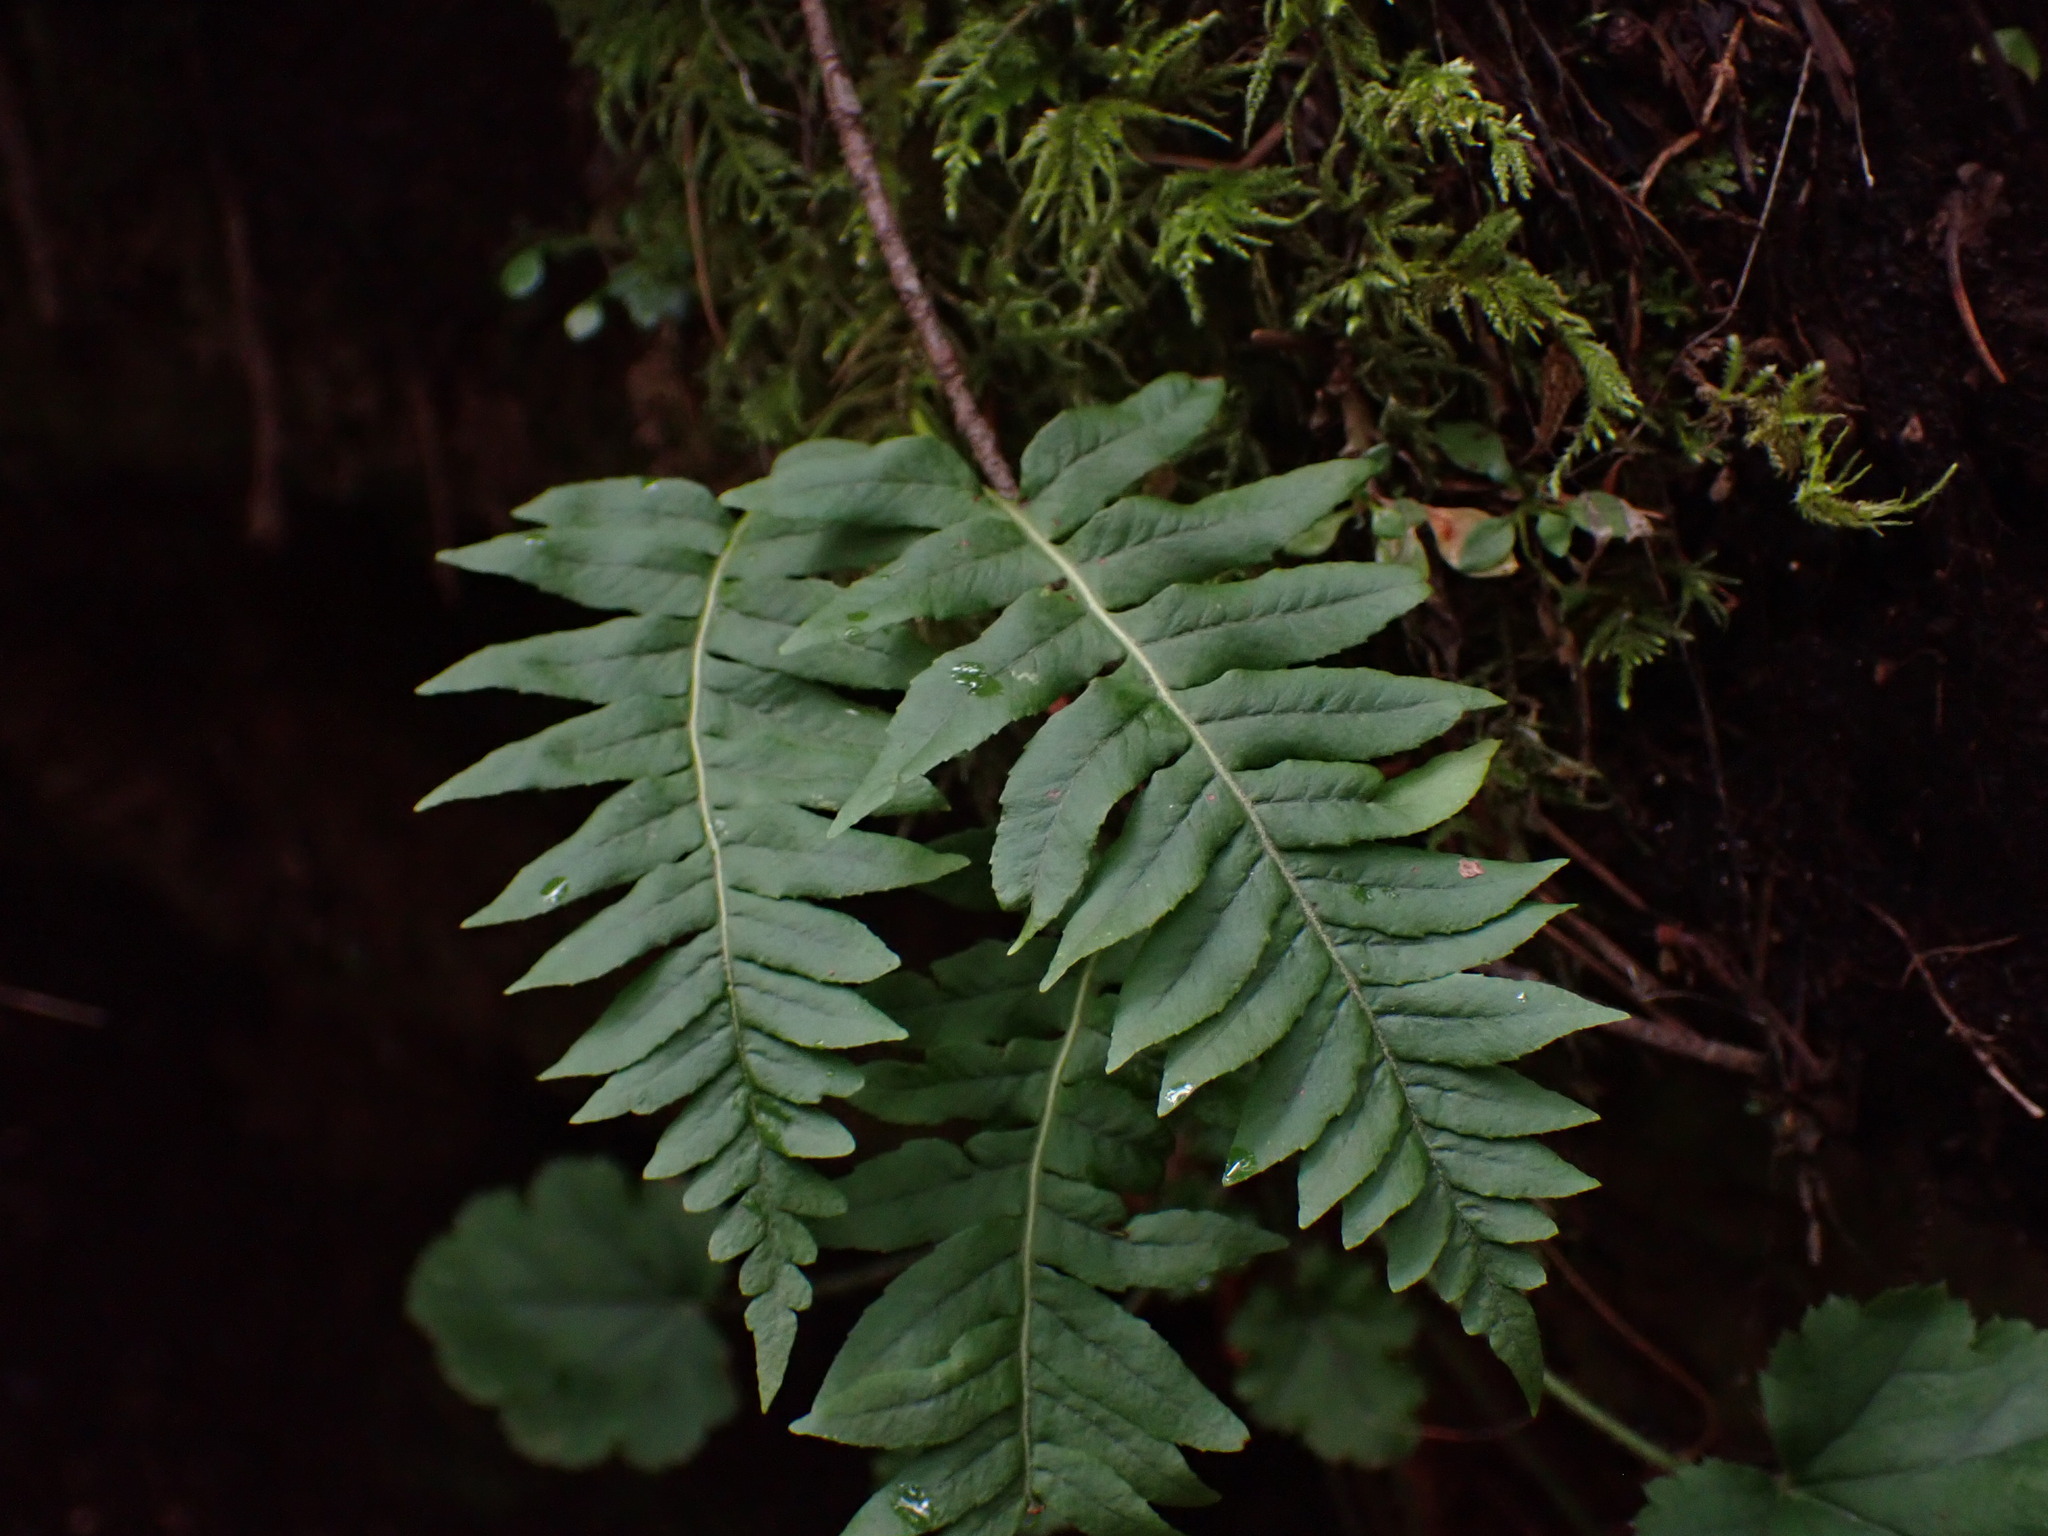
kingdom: Plantae
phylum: Tracheophyta
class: Polypodiopsida
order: Polypodiales
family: Polypodiaceae
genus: Polypodium
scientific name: Polypodium glycyrrhiza
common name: Licorice fern
